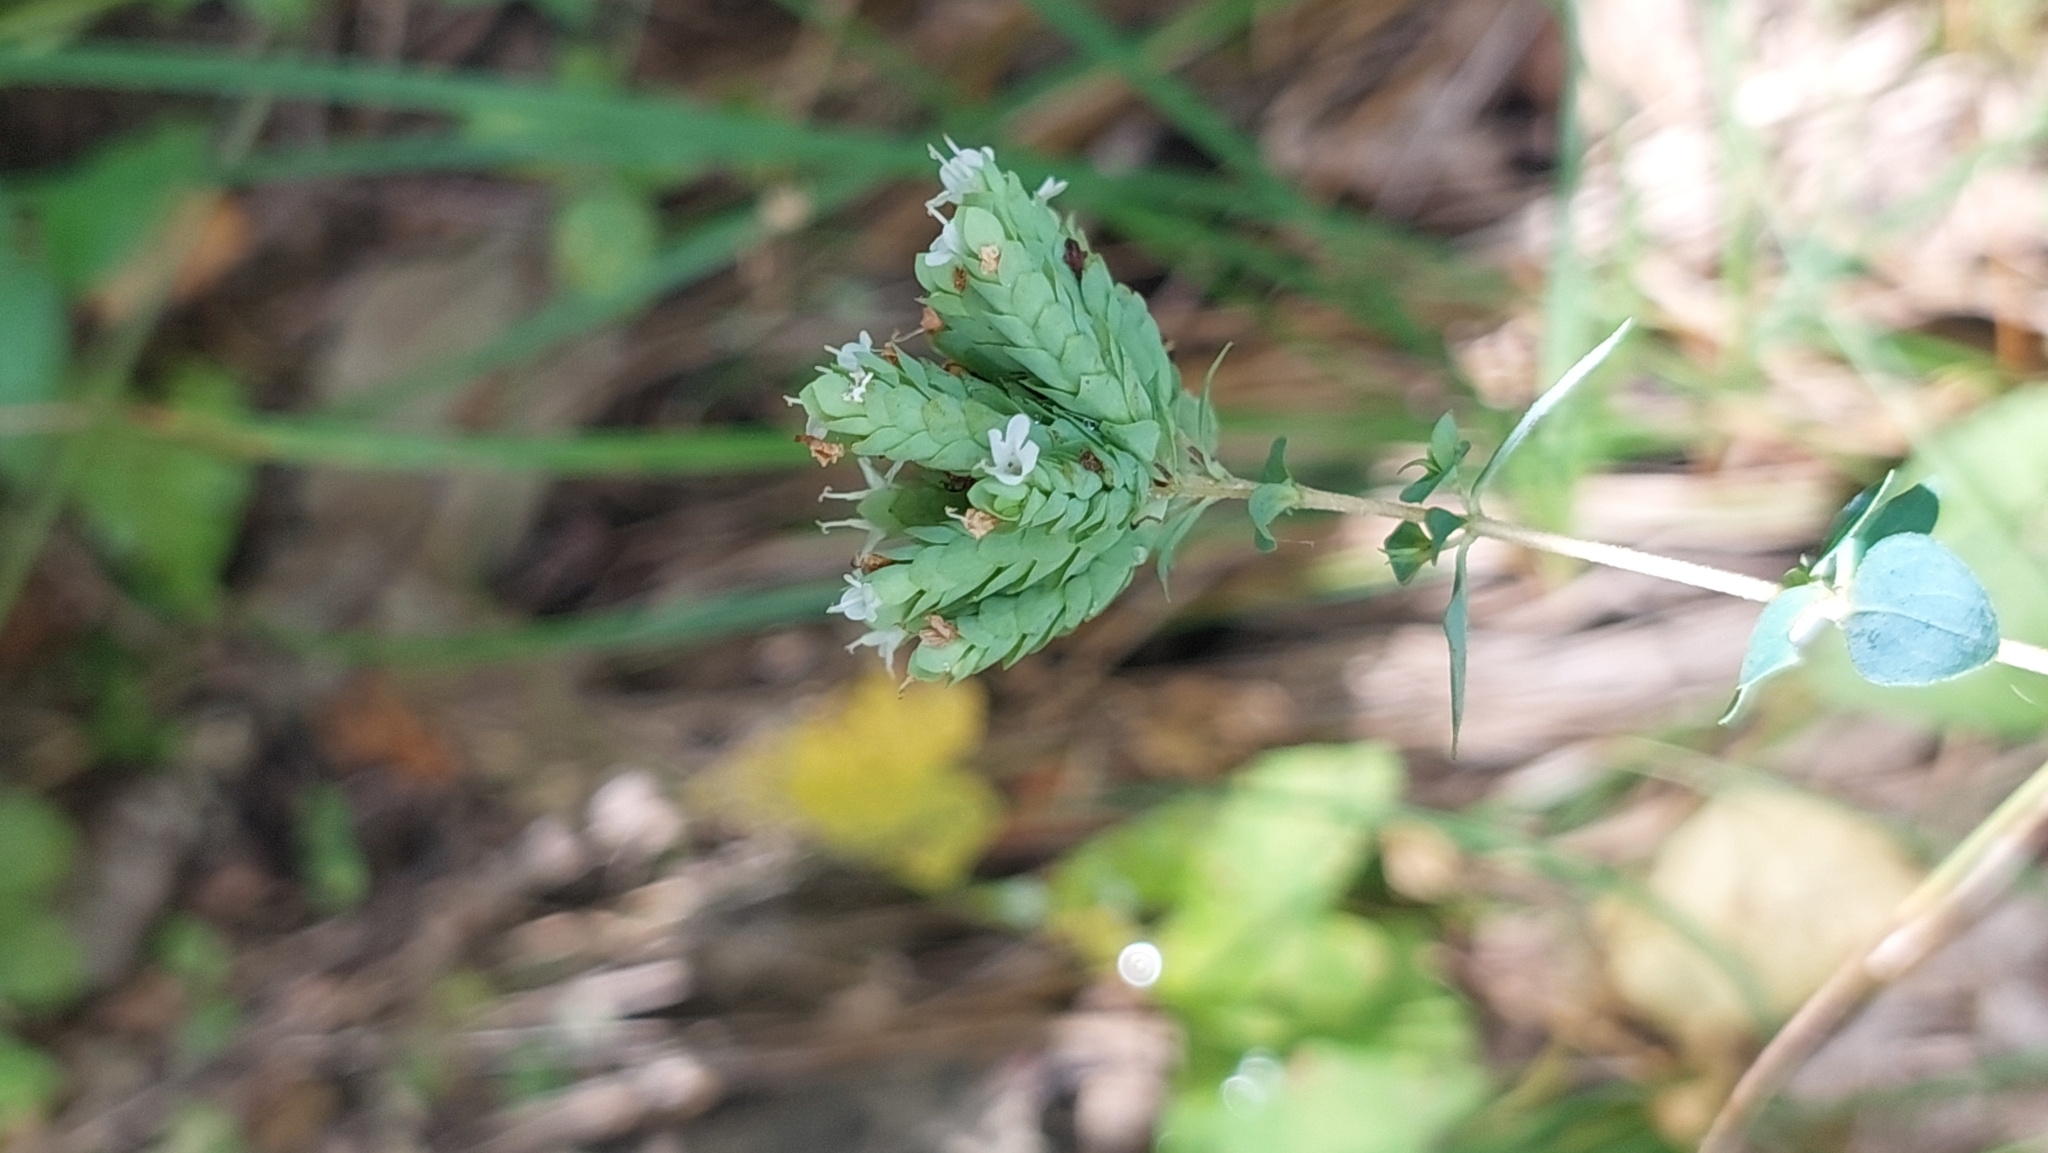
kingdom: Plantae
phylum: Tracheophyta
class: Magnoliopsida
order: Lamiales
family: Lamiaceae
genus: Origanum
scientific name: Origanum vulgare
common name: Wild marjoram
